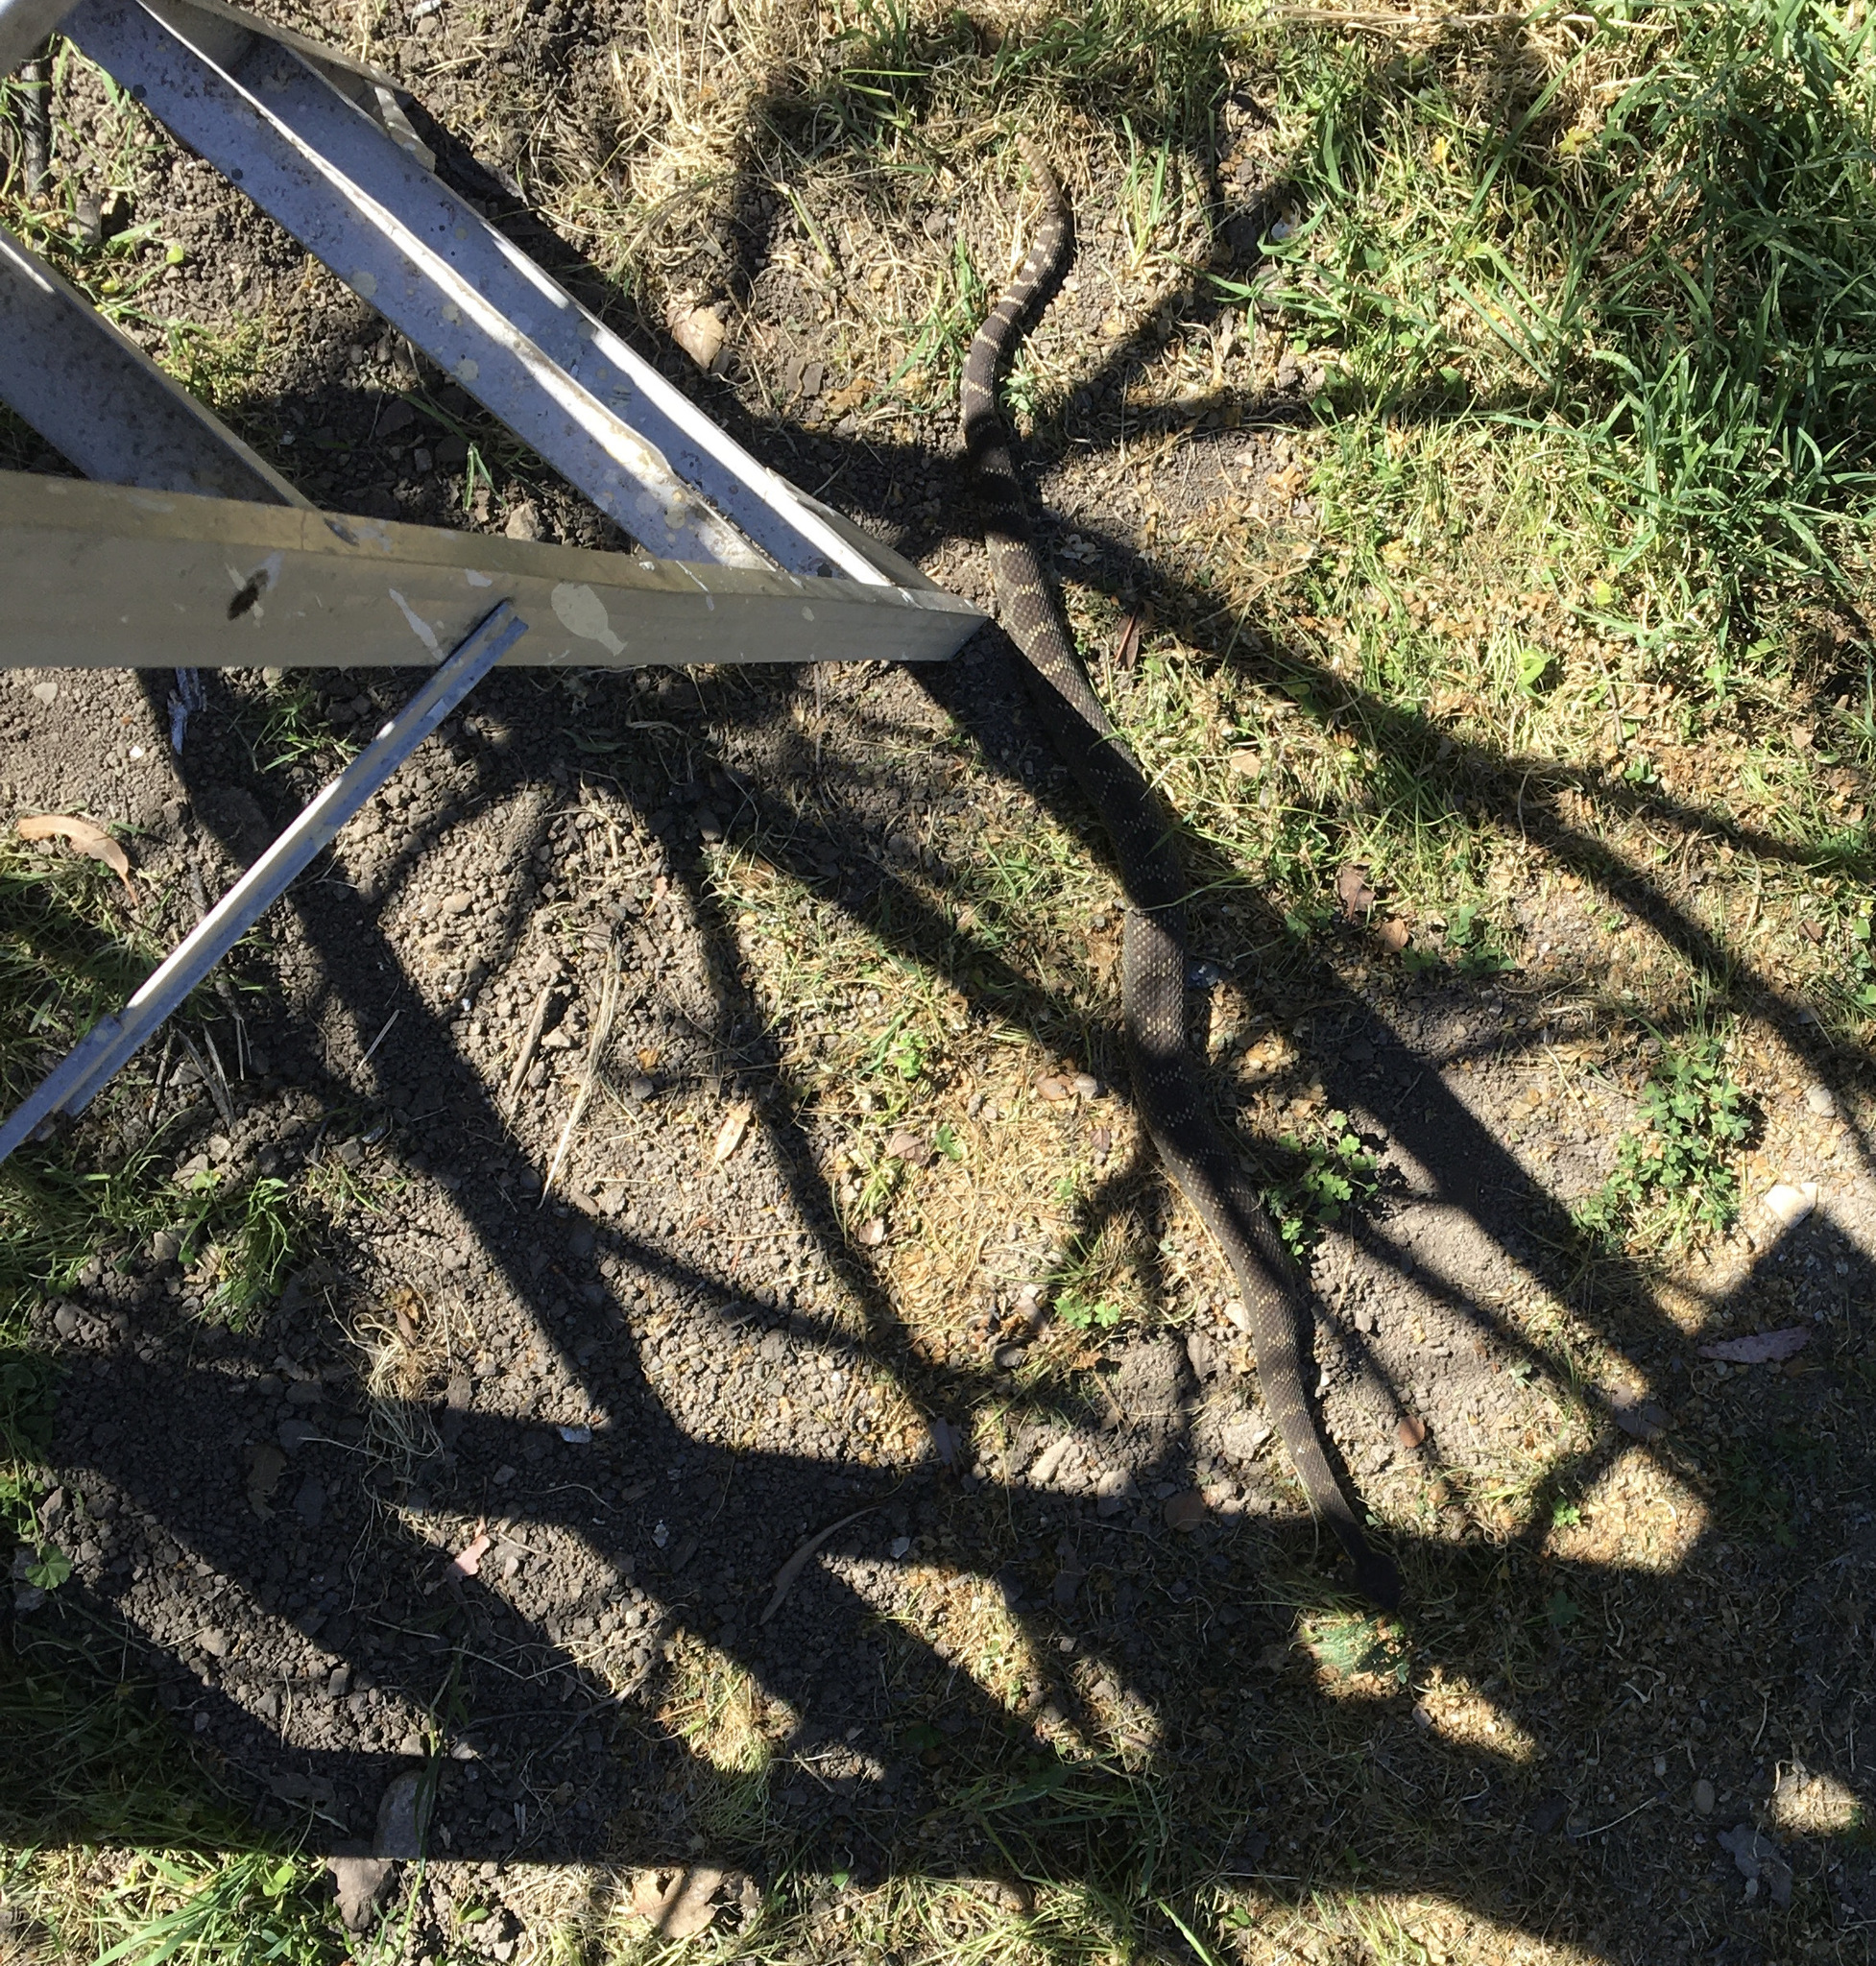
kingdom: Animalia
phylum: Chordata
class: Squamata
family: Viperidae
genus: Crotalus
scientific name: Crotalus oreganus
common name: Abyssus
